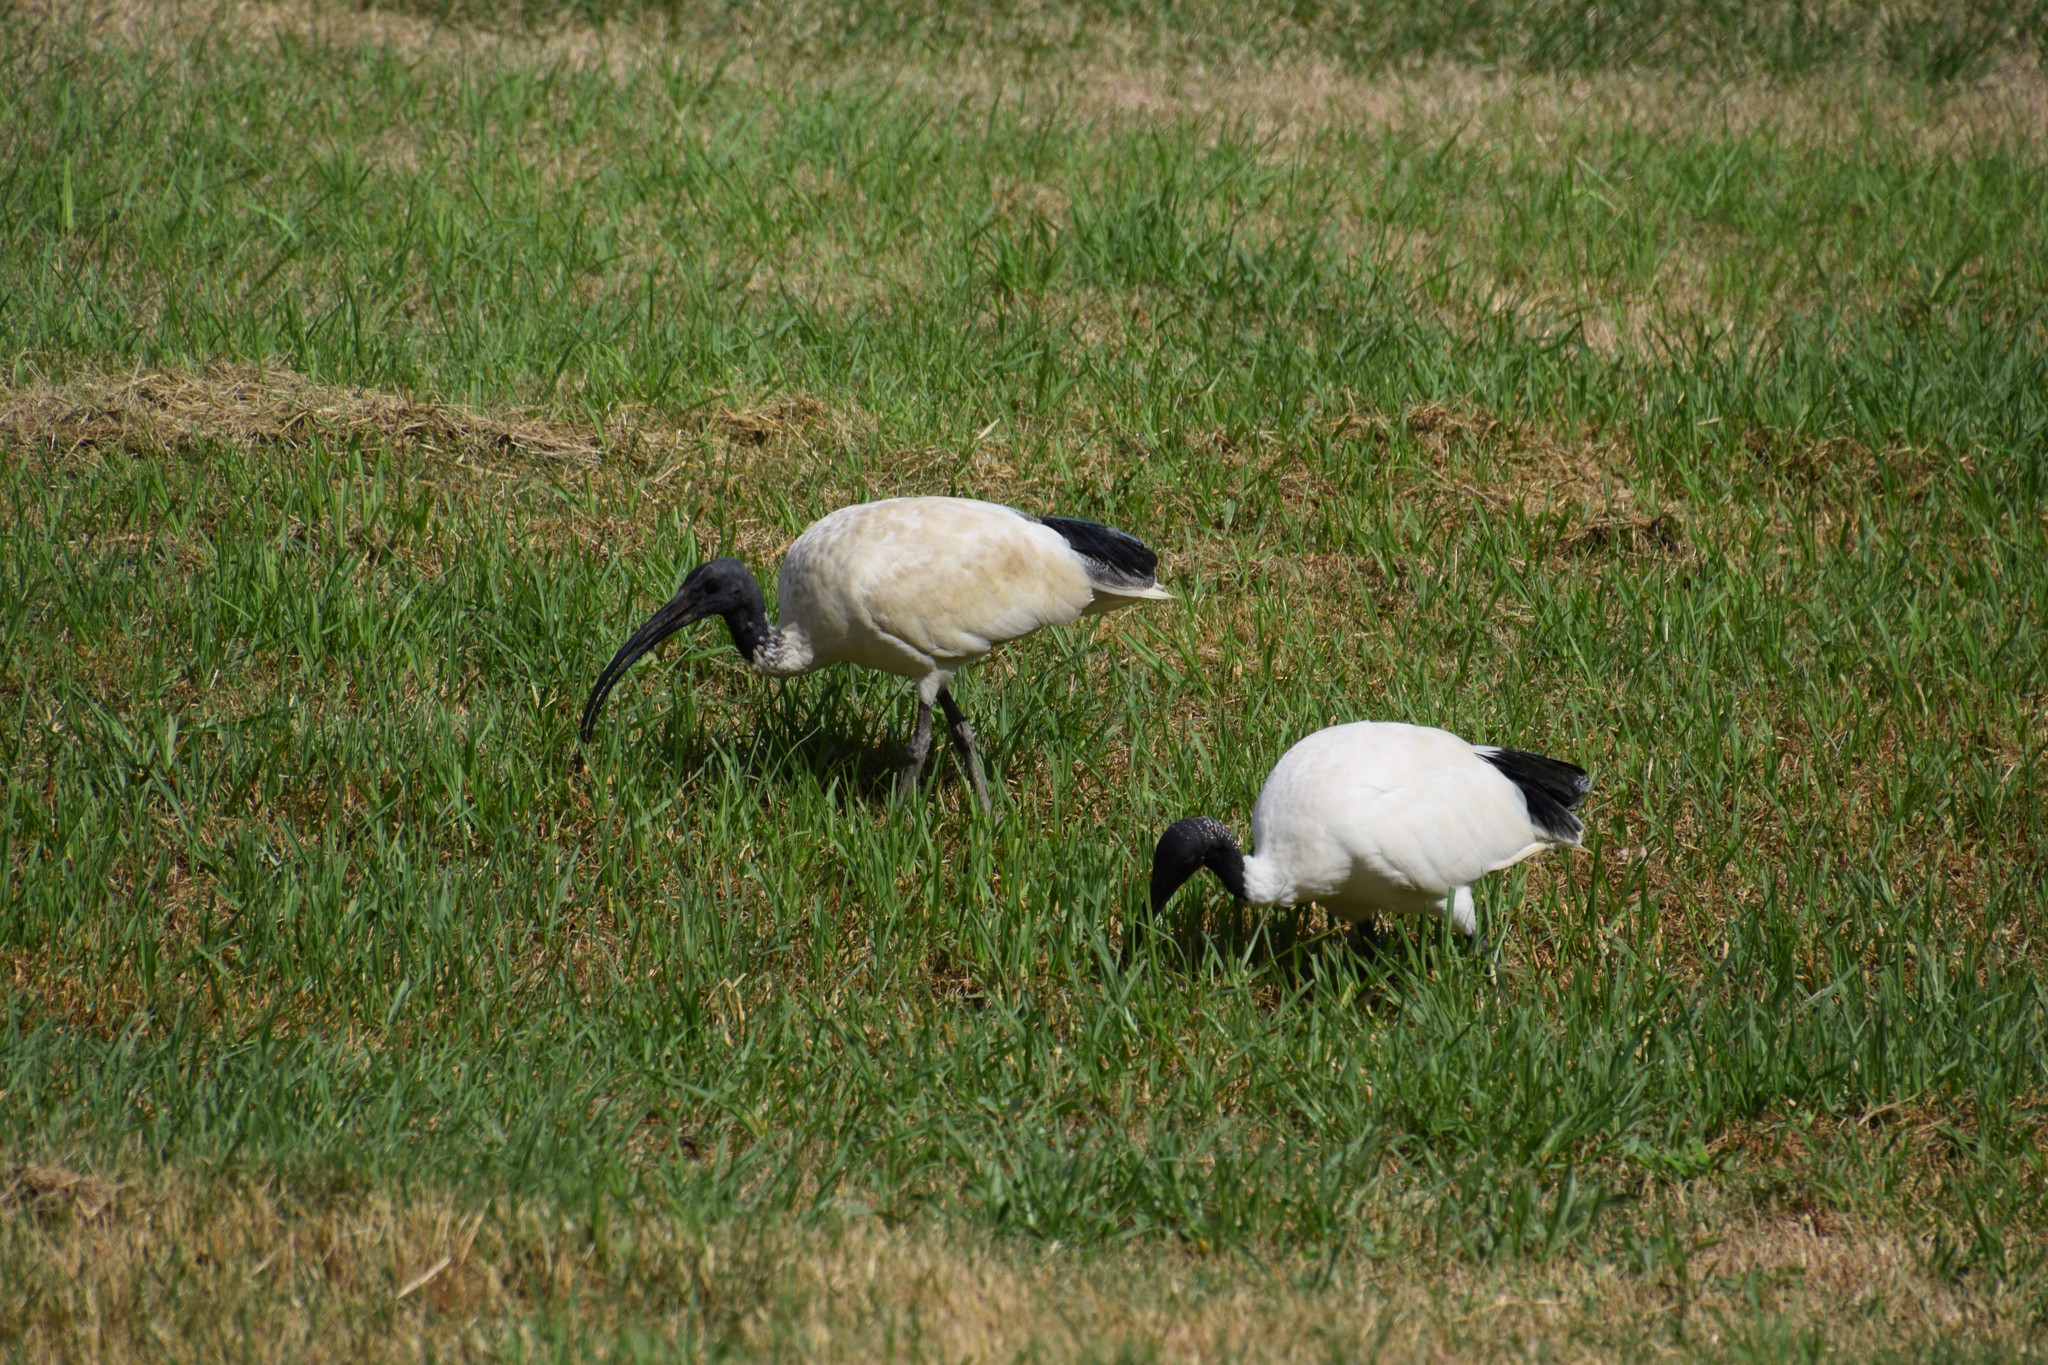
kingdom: Animalia
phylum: Chordata
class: Aves
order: Pelecaniformes
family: Threskiornithidae
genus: Threskiornis
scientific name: Threskiornis molucca
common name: Australian white ibis
